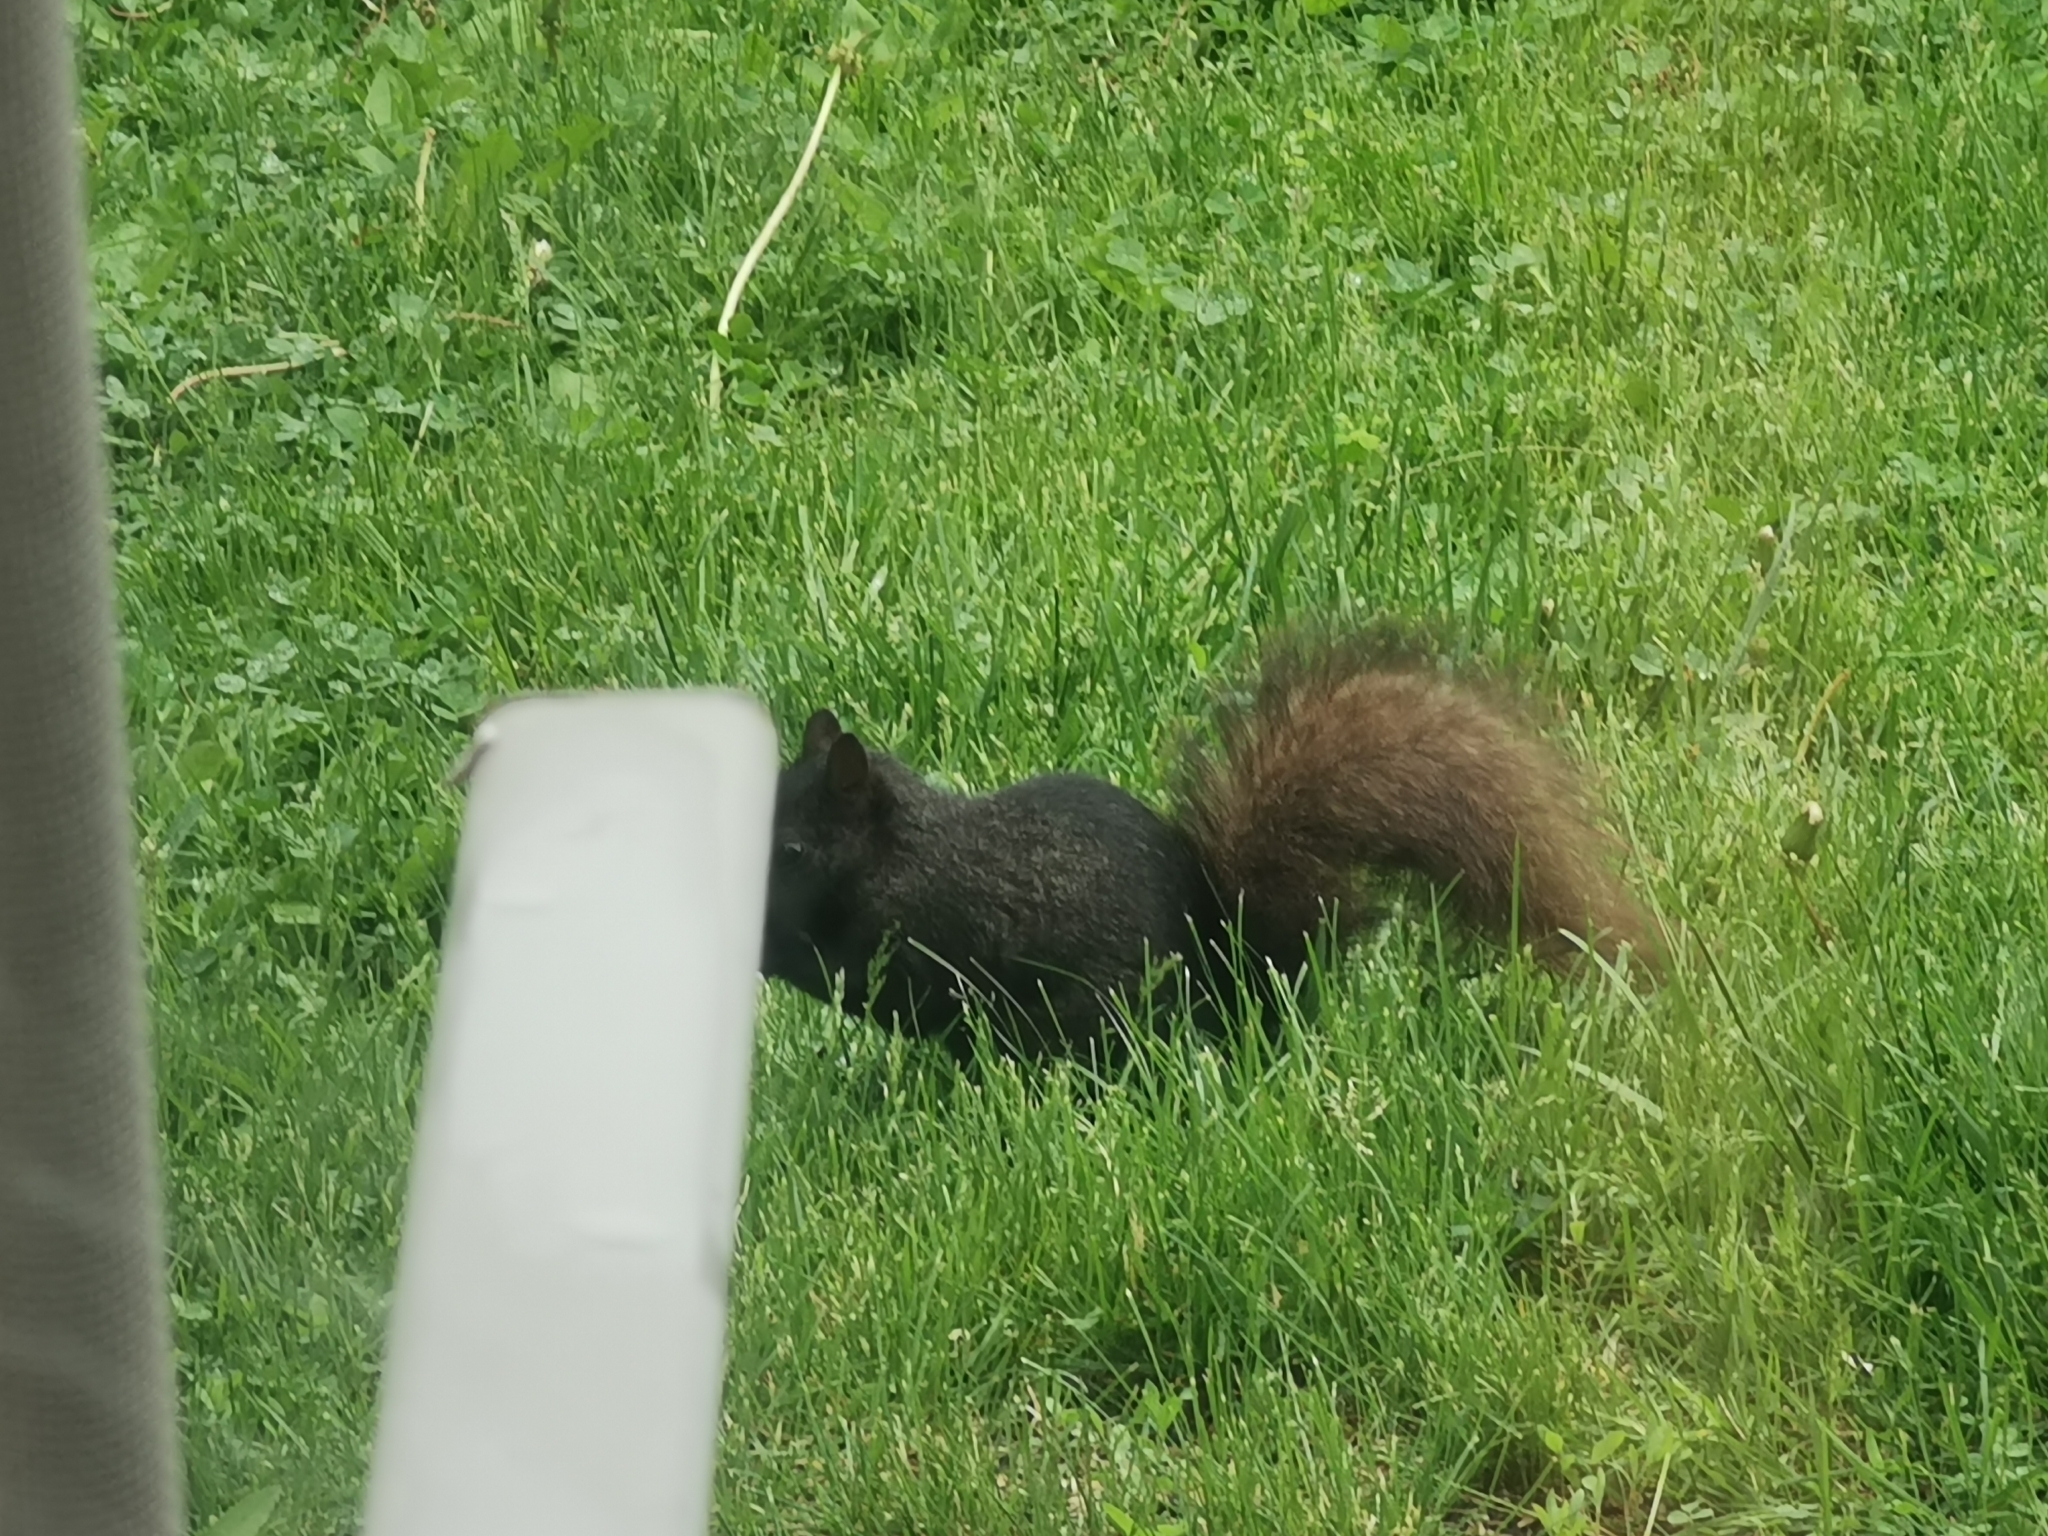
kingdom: Animalia
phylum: Chordata
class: Mammalia
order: Rodentia
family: Sciuridae
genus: Sciurus
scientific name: Sciurus carolinensis
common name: Eastern gray squirrel
